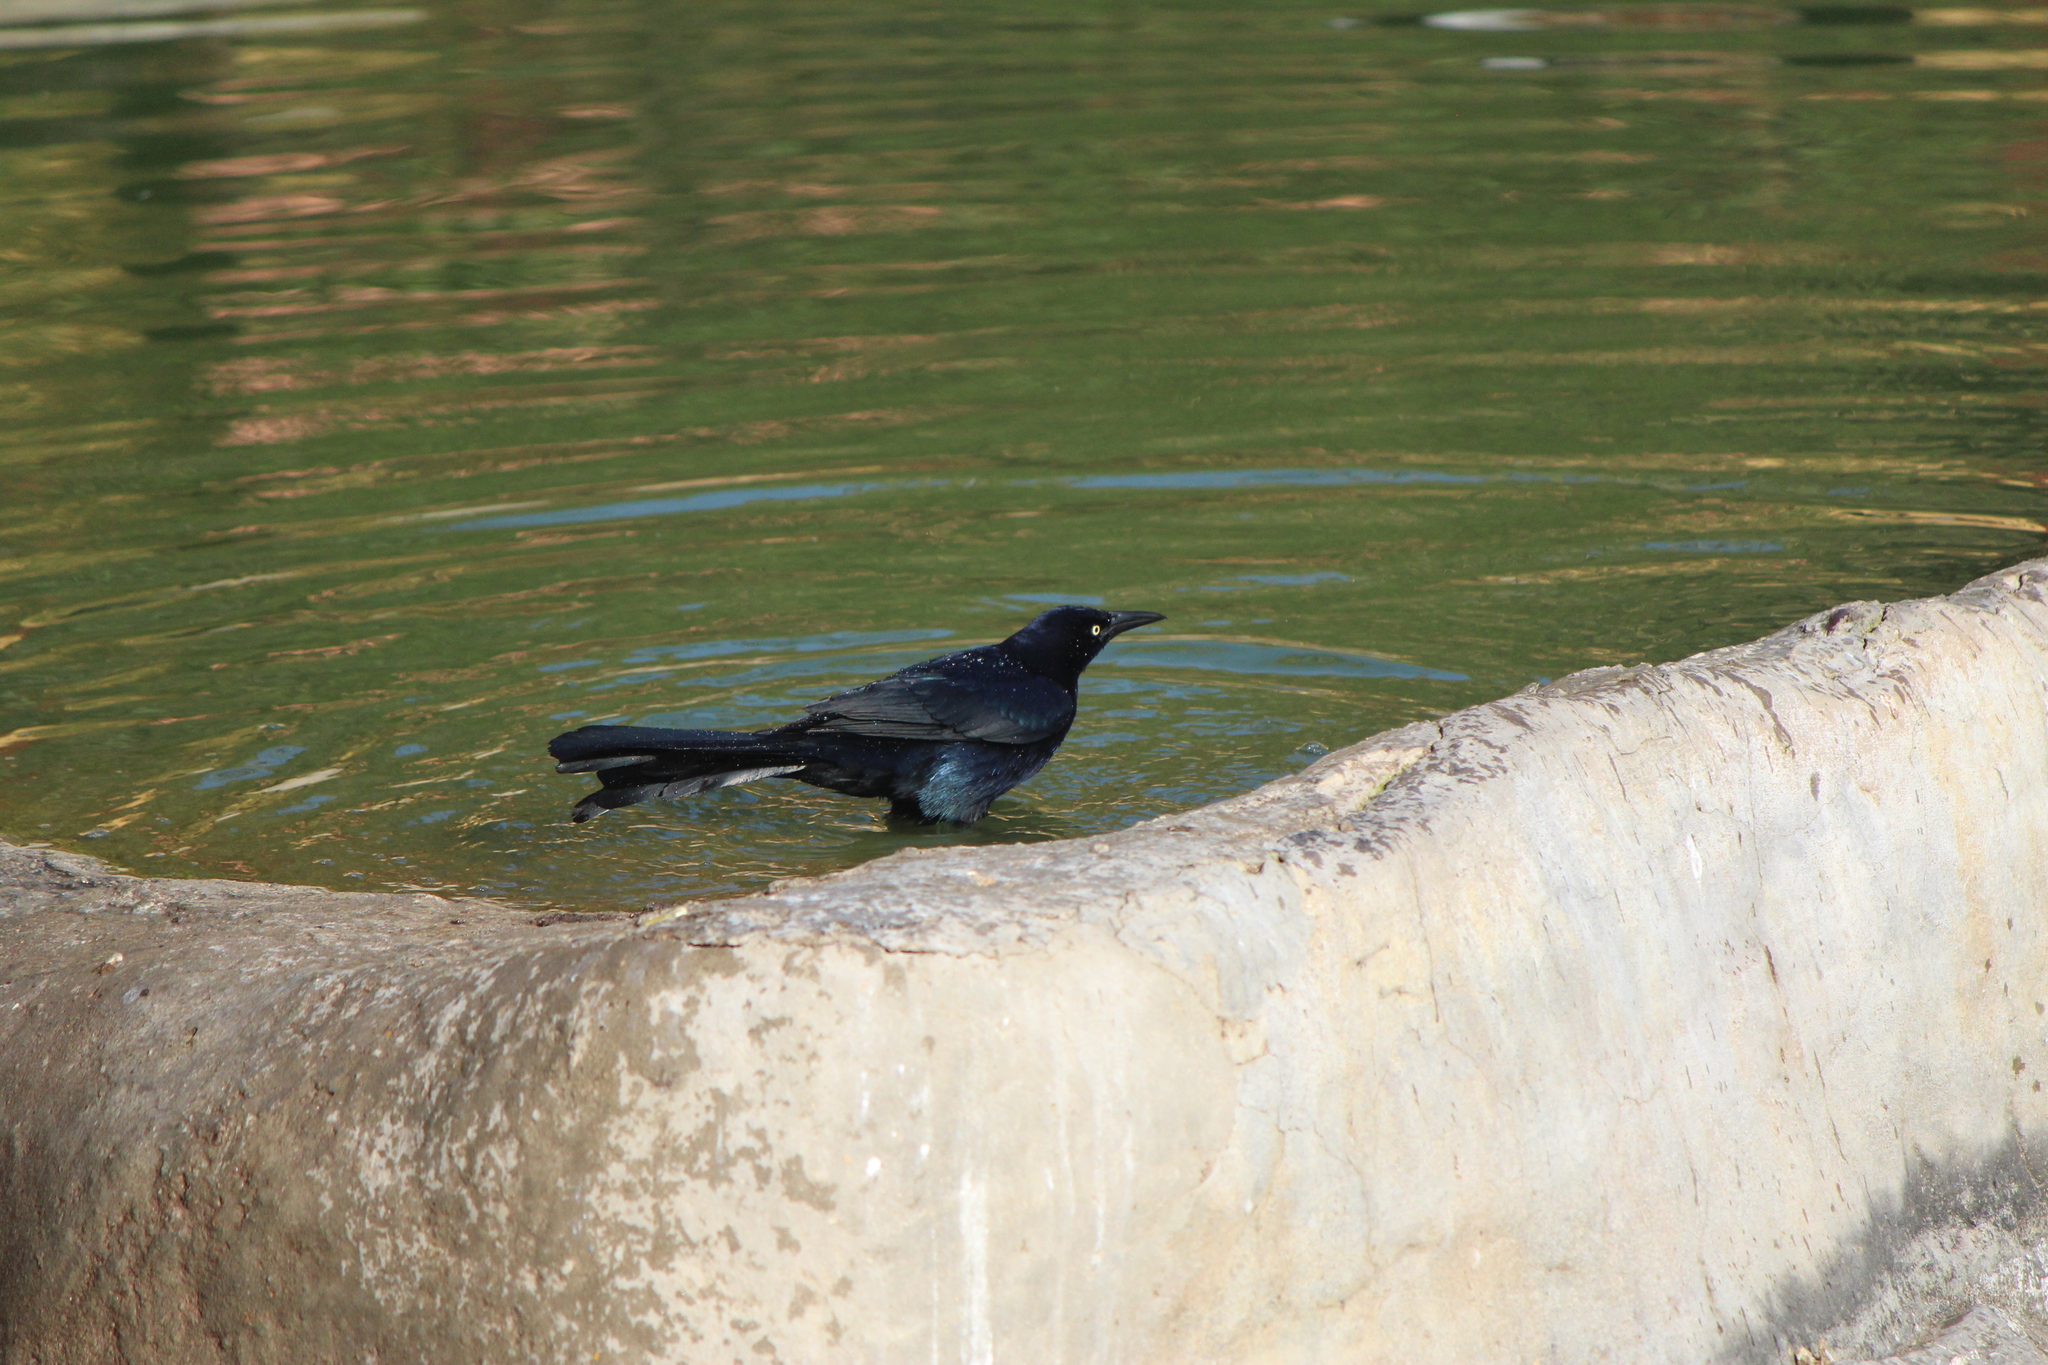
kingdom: Animalia
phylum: Chordata
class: Aves
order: Passeriformes
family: Icteridae
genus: Quiscalus
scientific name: Quiscalus mexicanus
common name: Great-tailed grackle
